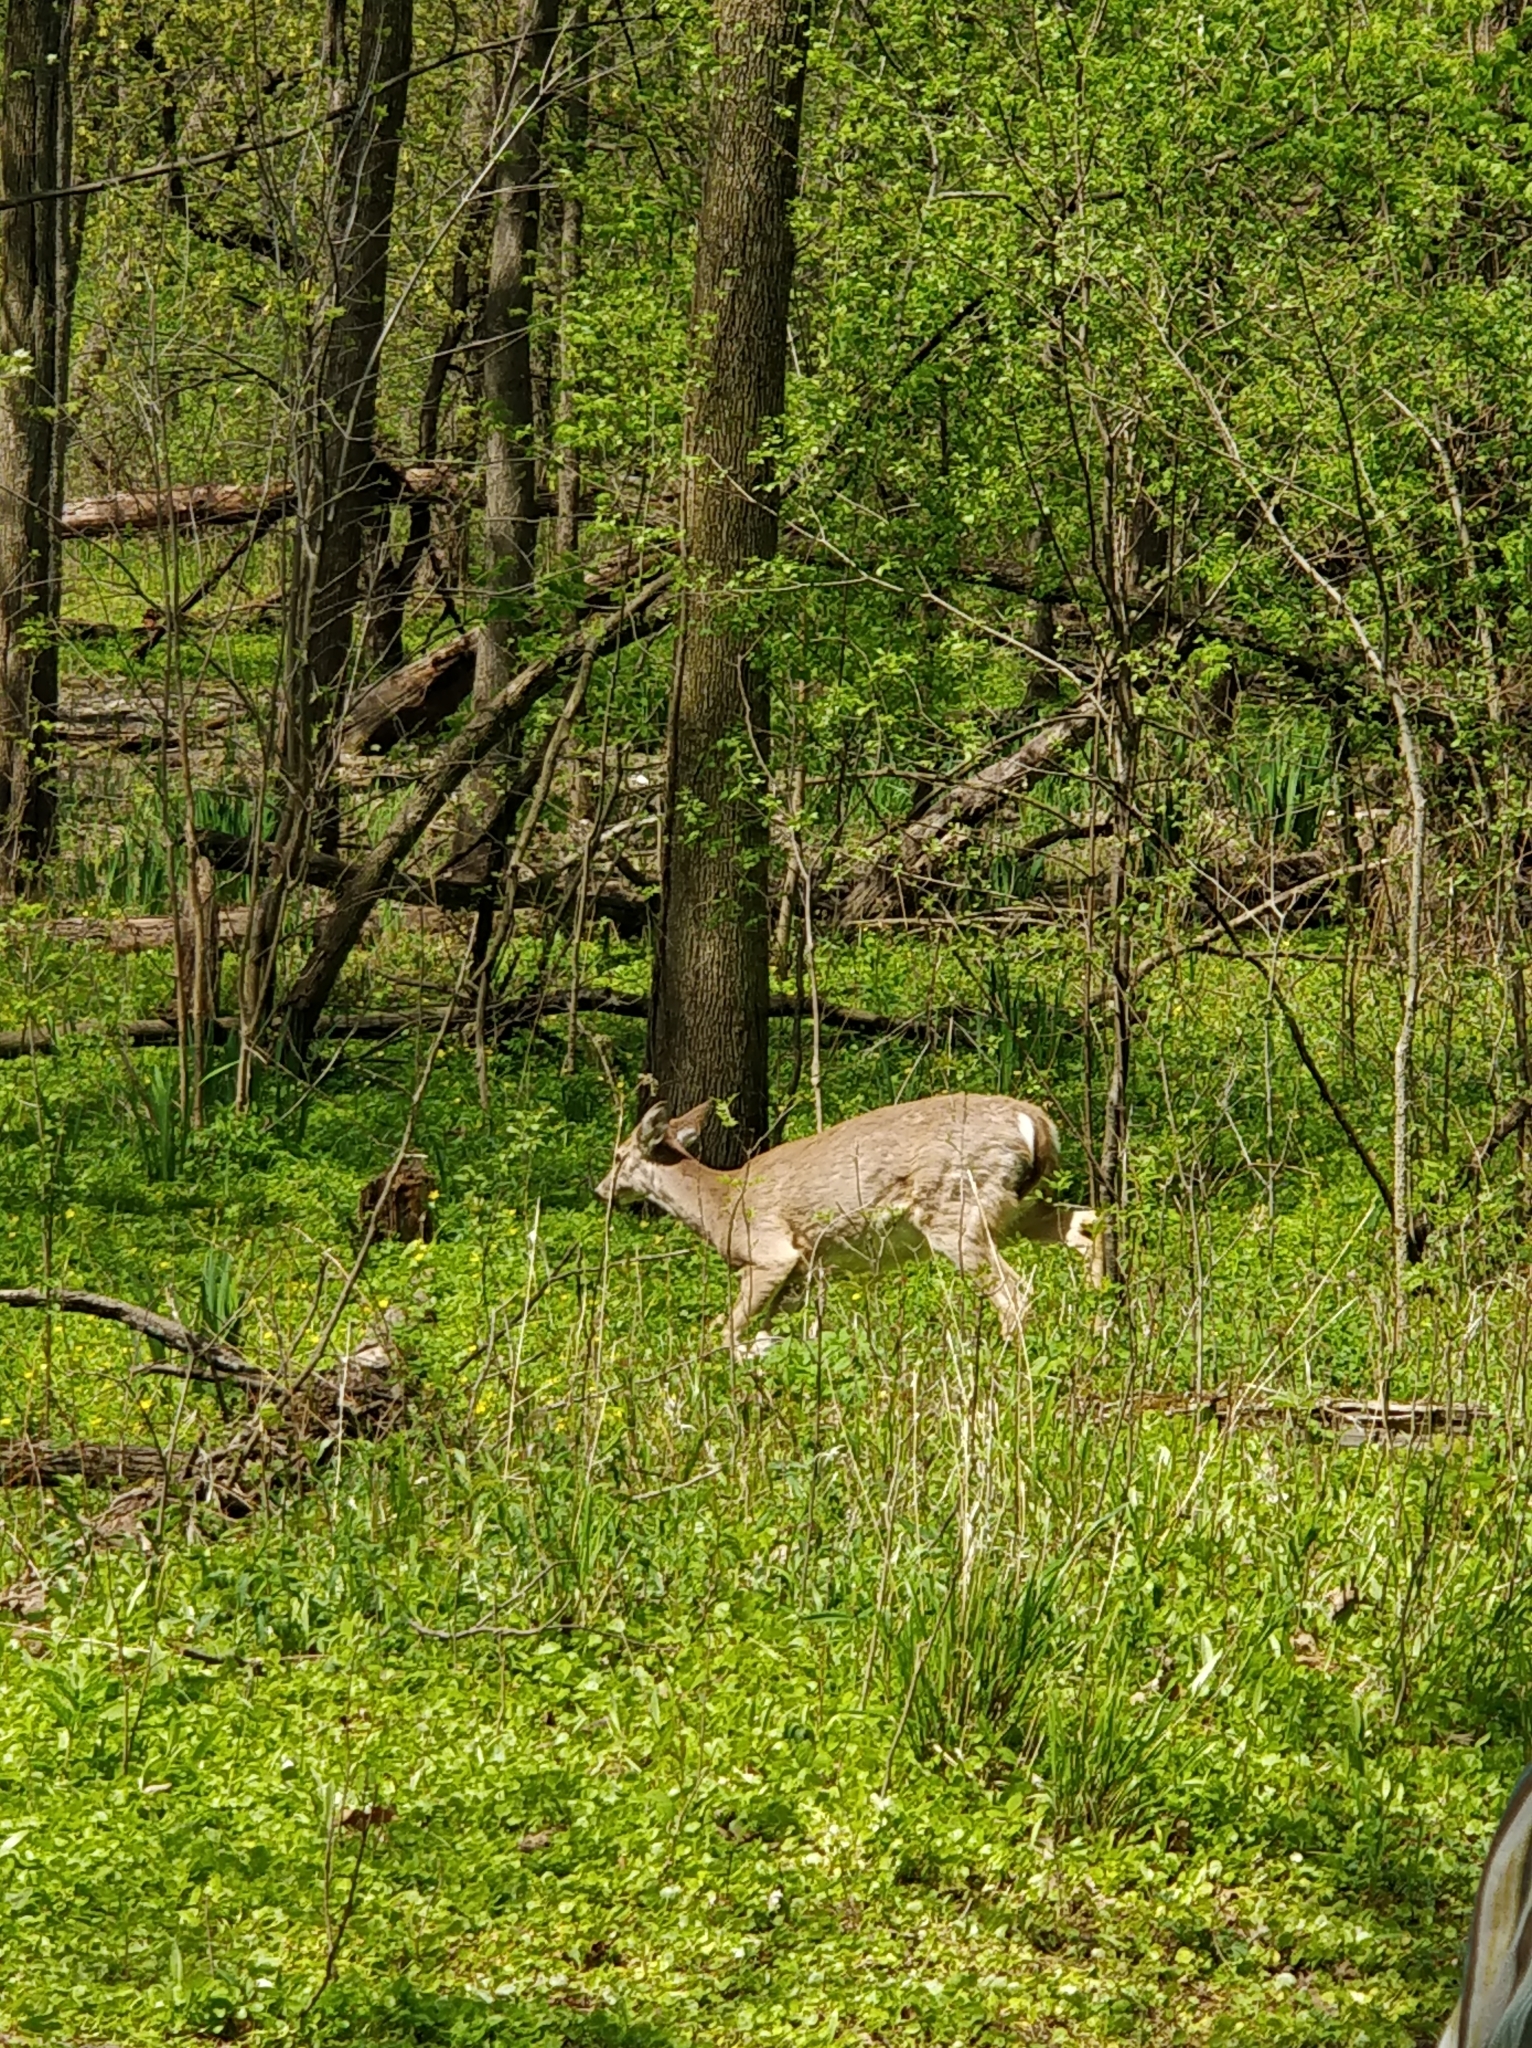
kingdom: Animalia
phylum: Chordata
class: Mammalia
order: Artiodactyla
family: Cervidae
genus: Odocoileus
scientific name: Odocoileus virginianus
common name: White-tailed deer
